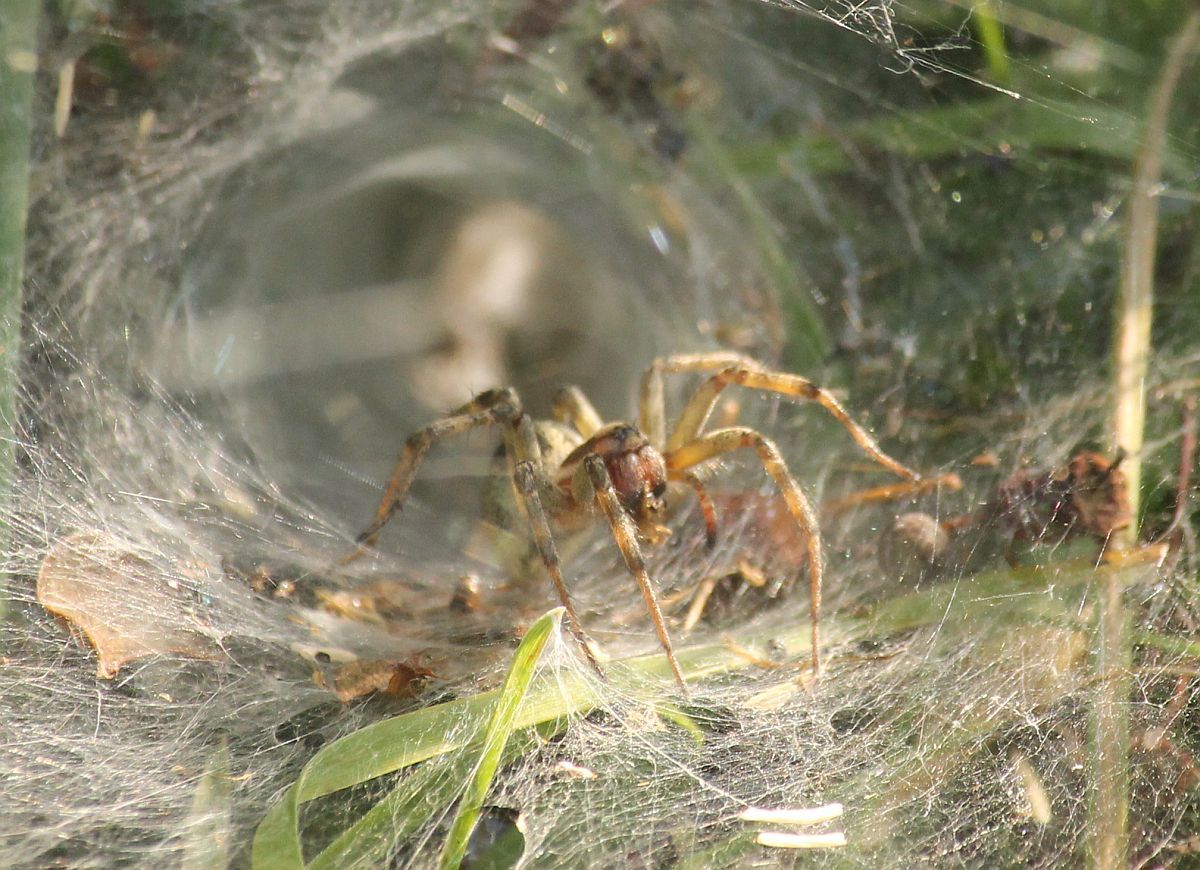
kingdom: Animalia
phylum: Arthropoda
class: Arachnida
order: Araneae
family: Agelenidae
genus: Agelena
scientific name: Agelena labyrinthica
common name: Labyrinth spider
